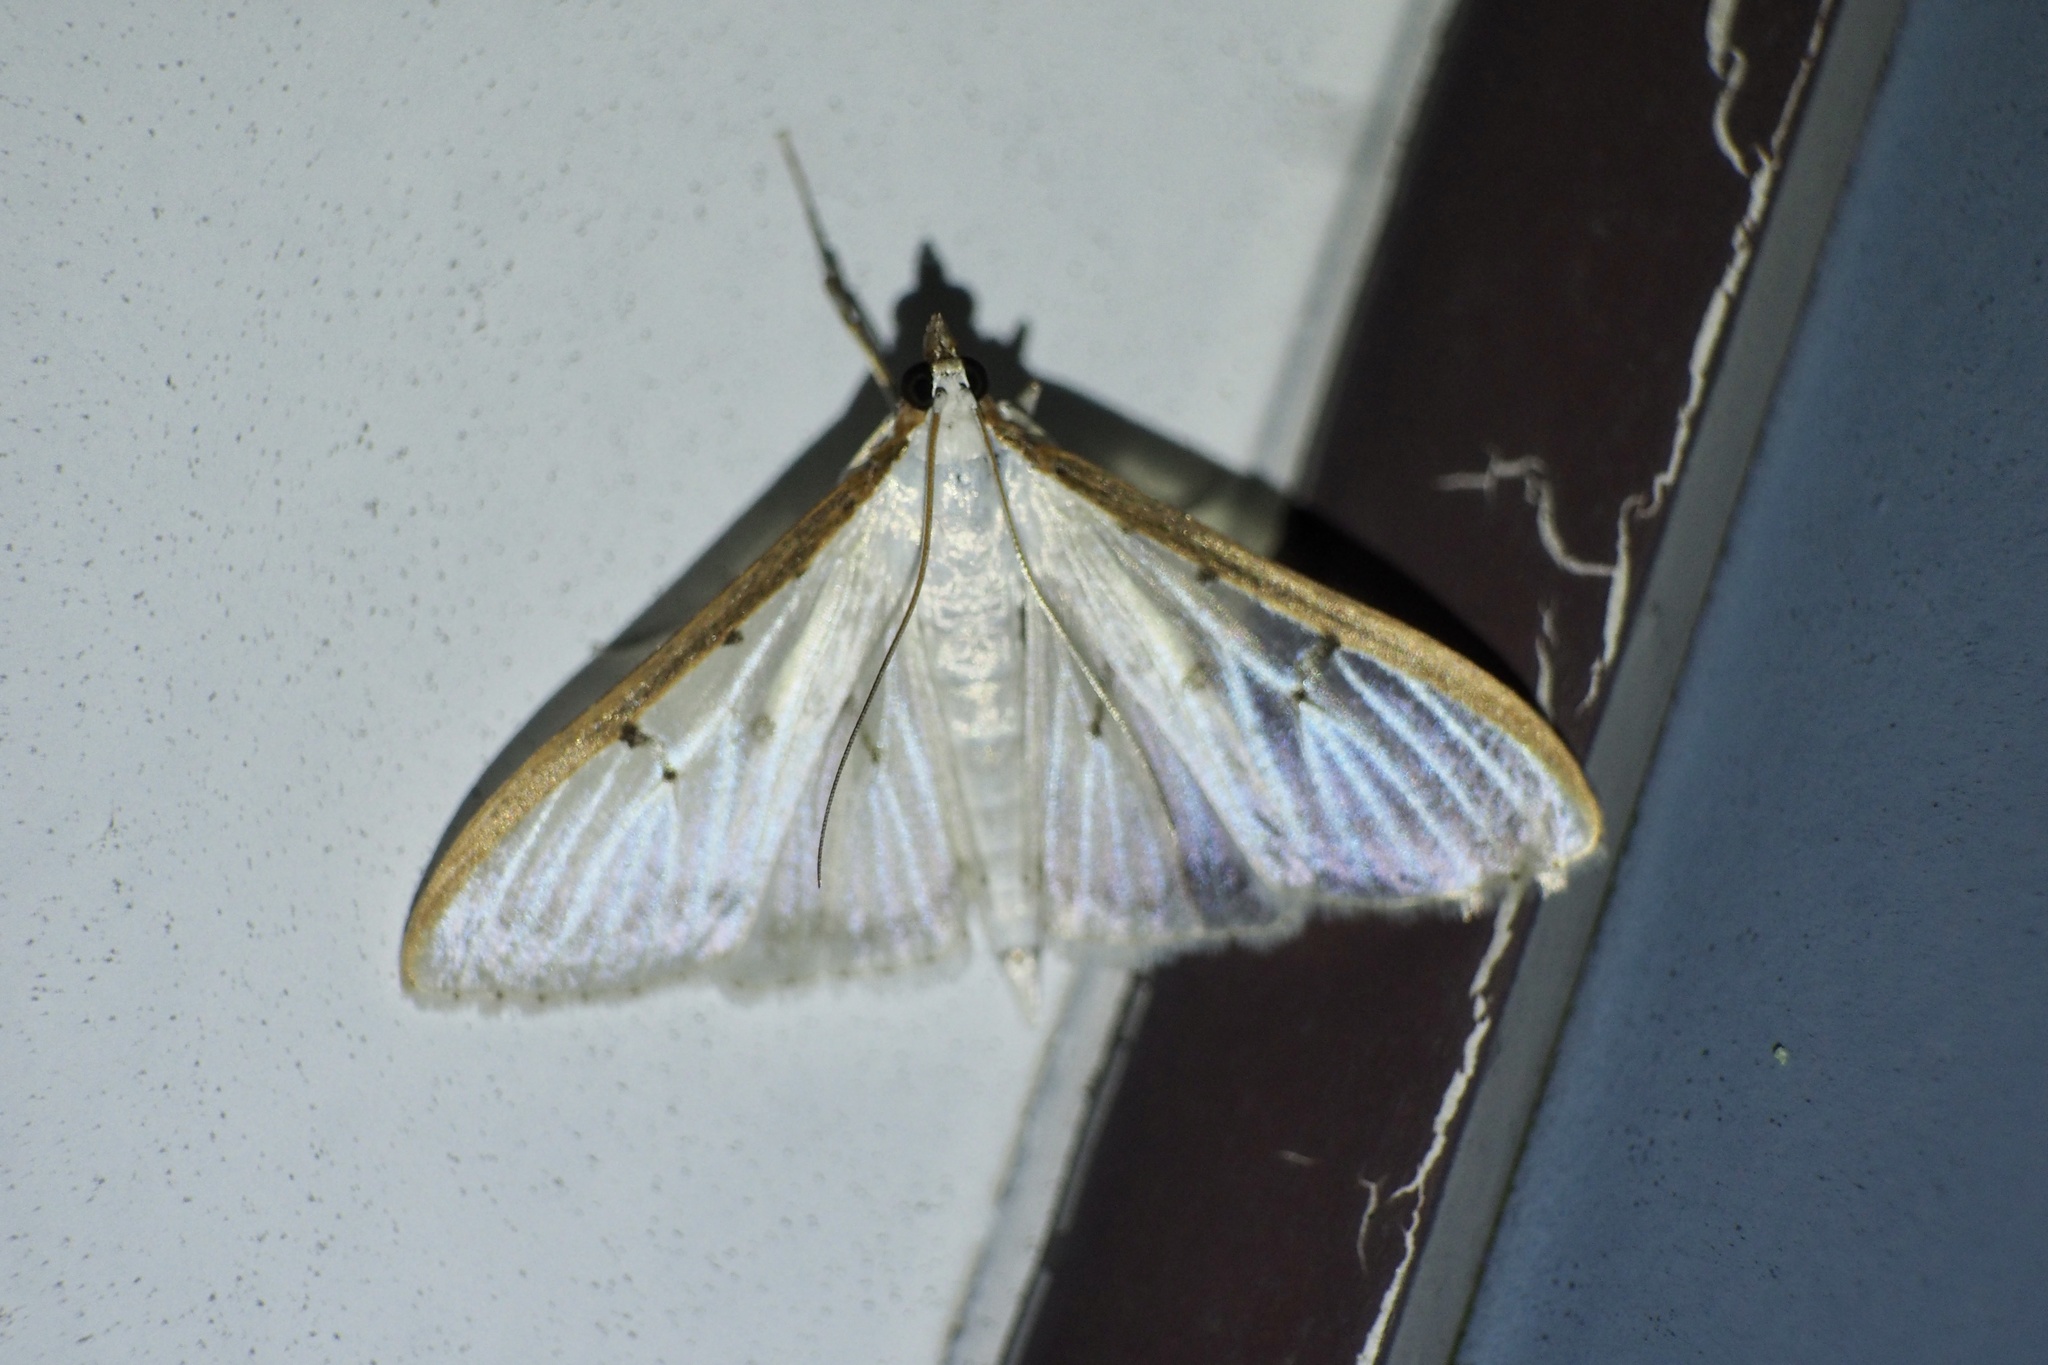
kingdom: Animalia
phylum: Arthropoda
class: Insecta
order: Lepidoptera
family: Crambidae
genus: Palpita
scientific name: Palpita nigropunctalis
